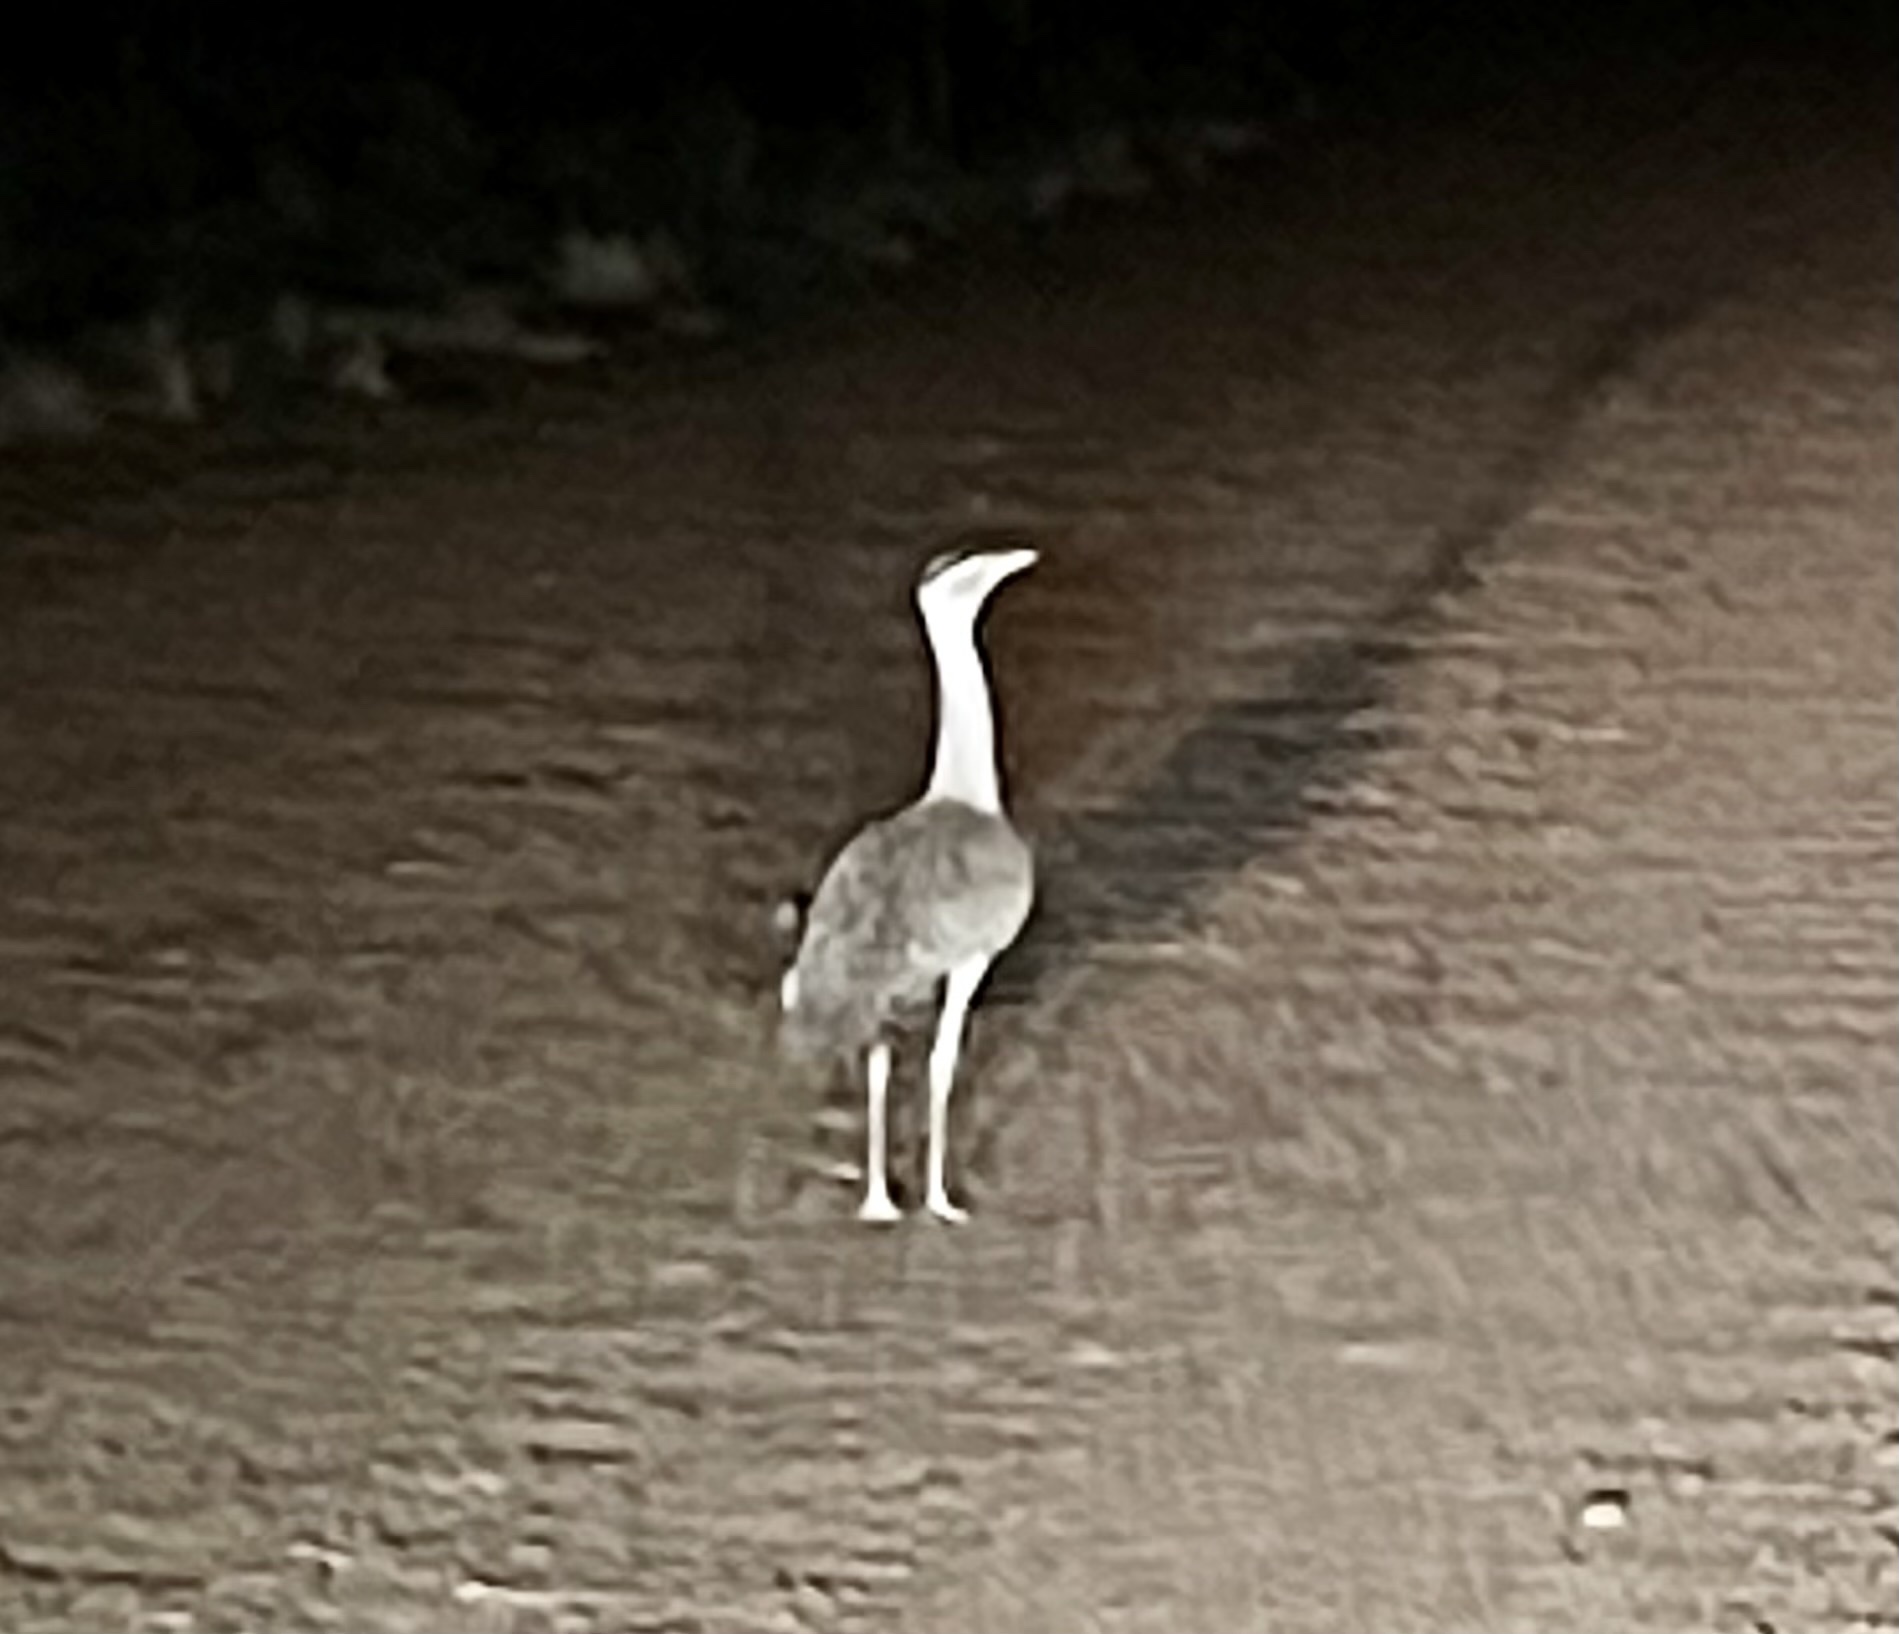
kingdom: Animalia
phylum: Chordata
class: Aves
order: Otidiformes
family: Otididae
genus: Ardeotis
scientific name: Ardeotis australis
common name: Australian bustard
